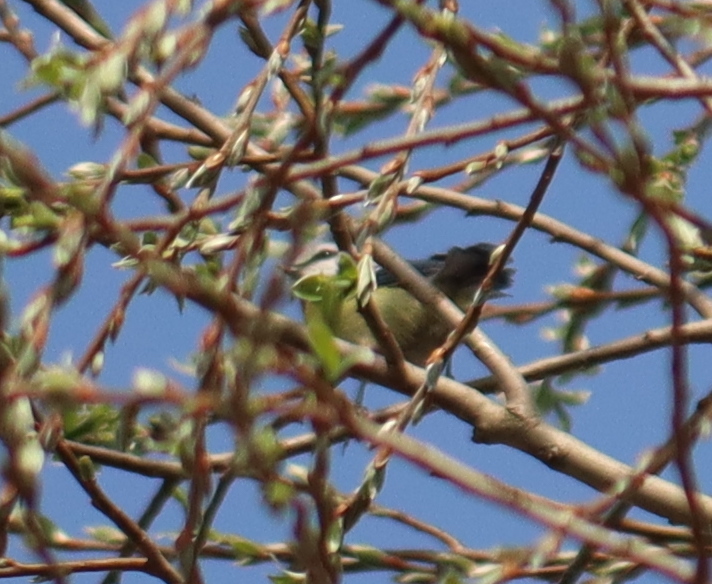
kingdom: Animalia
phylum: Chordata
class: Aves
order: Passeriformes
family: Paridae
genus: Cyanistes
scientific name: Cyanistes caeruleus
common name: Eurasian blue tit
